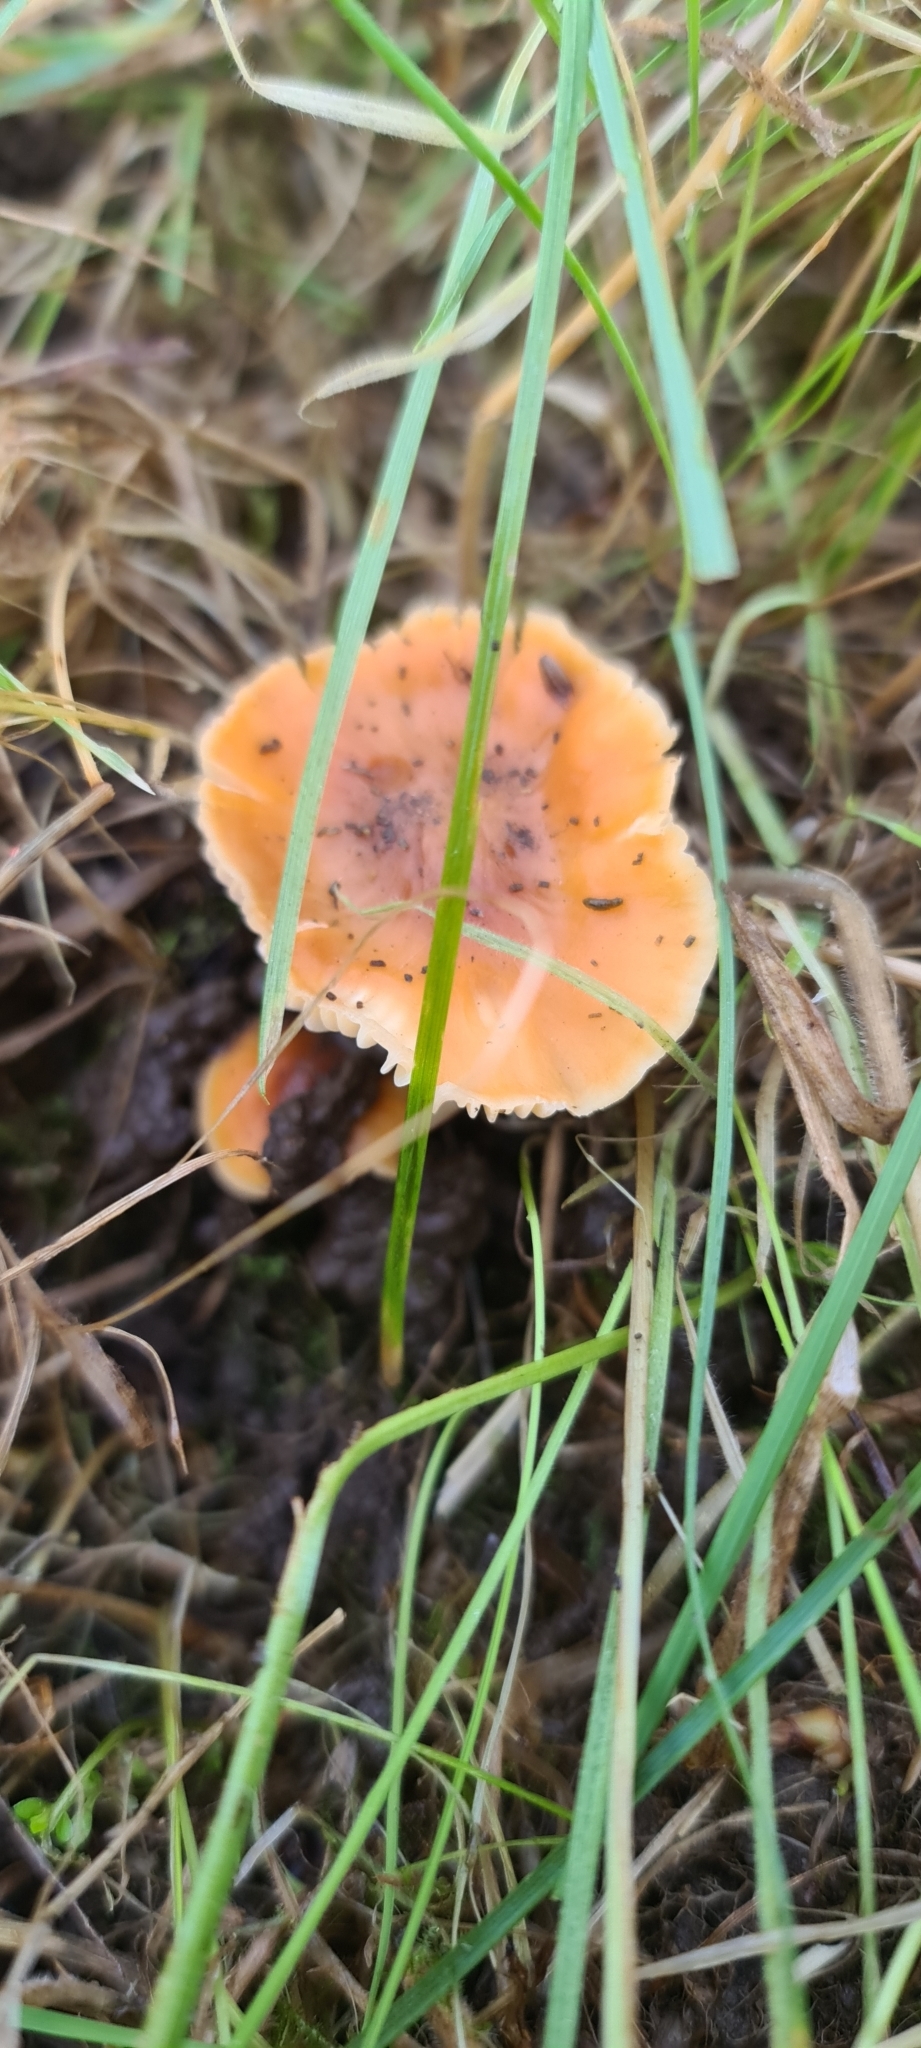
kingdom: Fungi
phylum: Basidiomycota
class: Agaricomycetes
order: Agaricales
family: Hygrophoraceae
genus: Cuphophyllus
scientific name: Cuphophyllus pratensis
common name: Meadow waxcap
